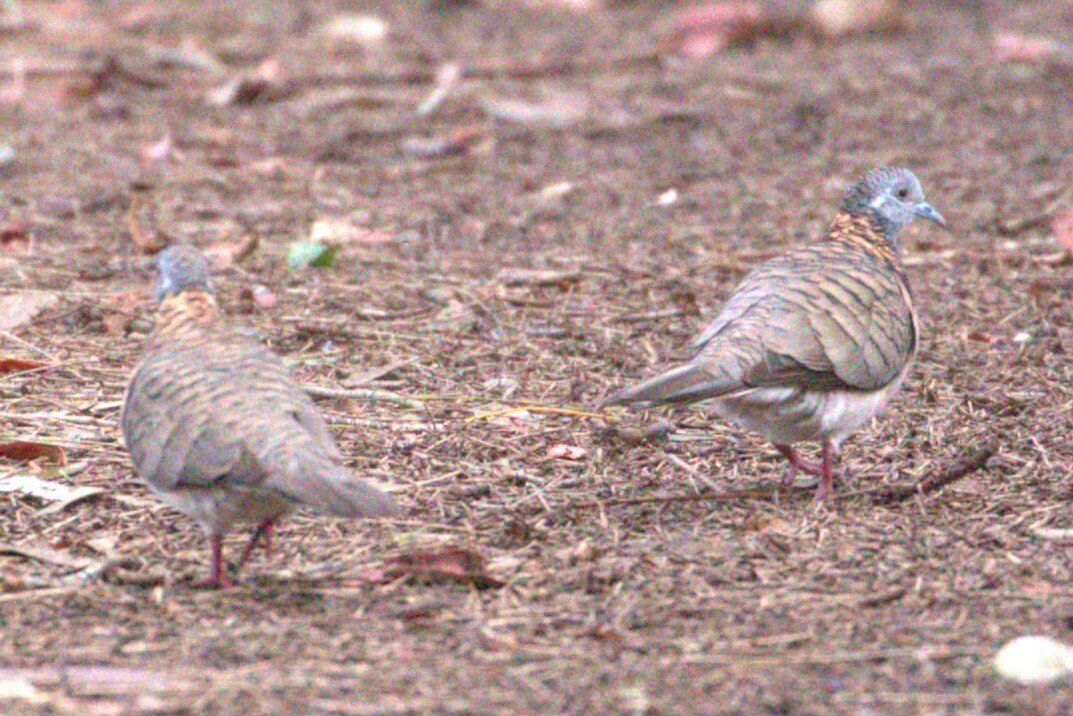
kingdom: Animalia
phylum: Chordata
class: Aves
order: Columbiformes
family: Columbidae
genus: Geopelia
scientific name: Geopelia humeralis
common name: Bar-shouldered dove
